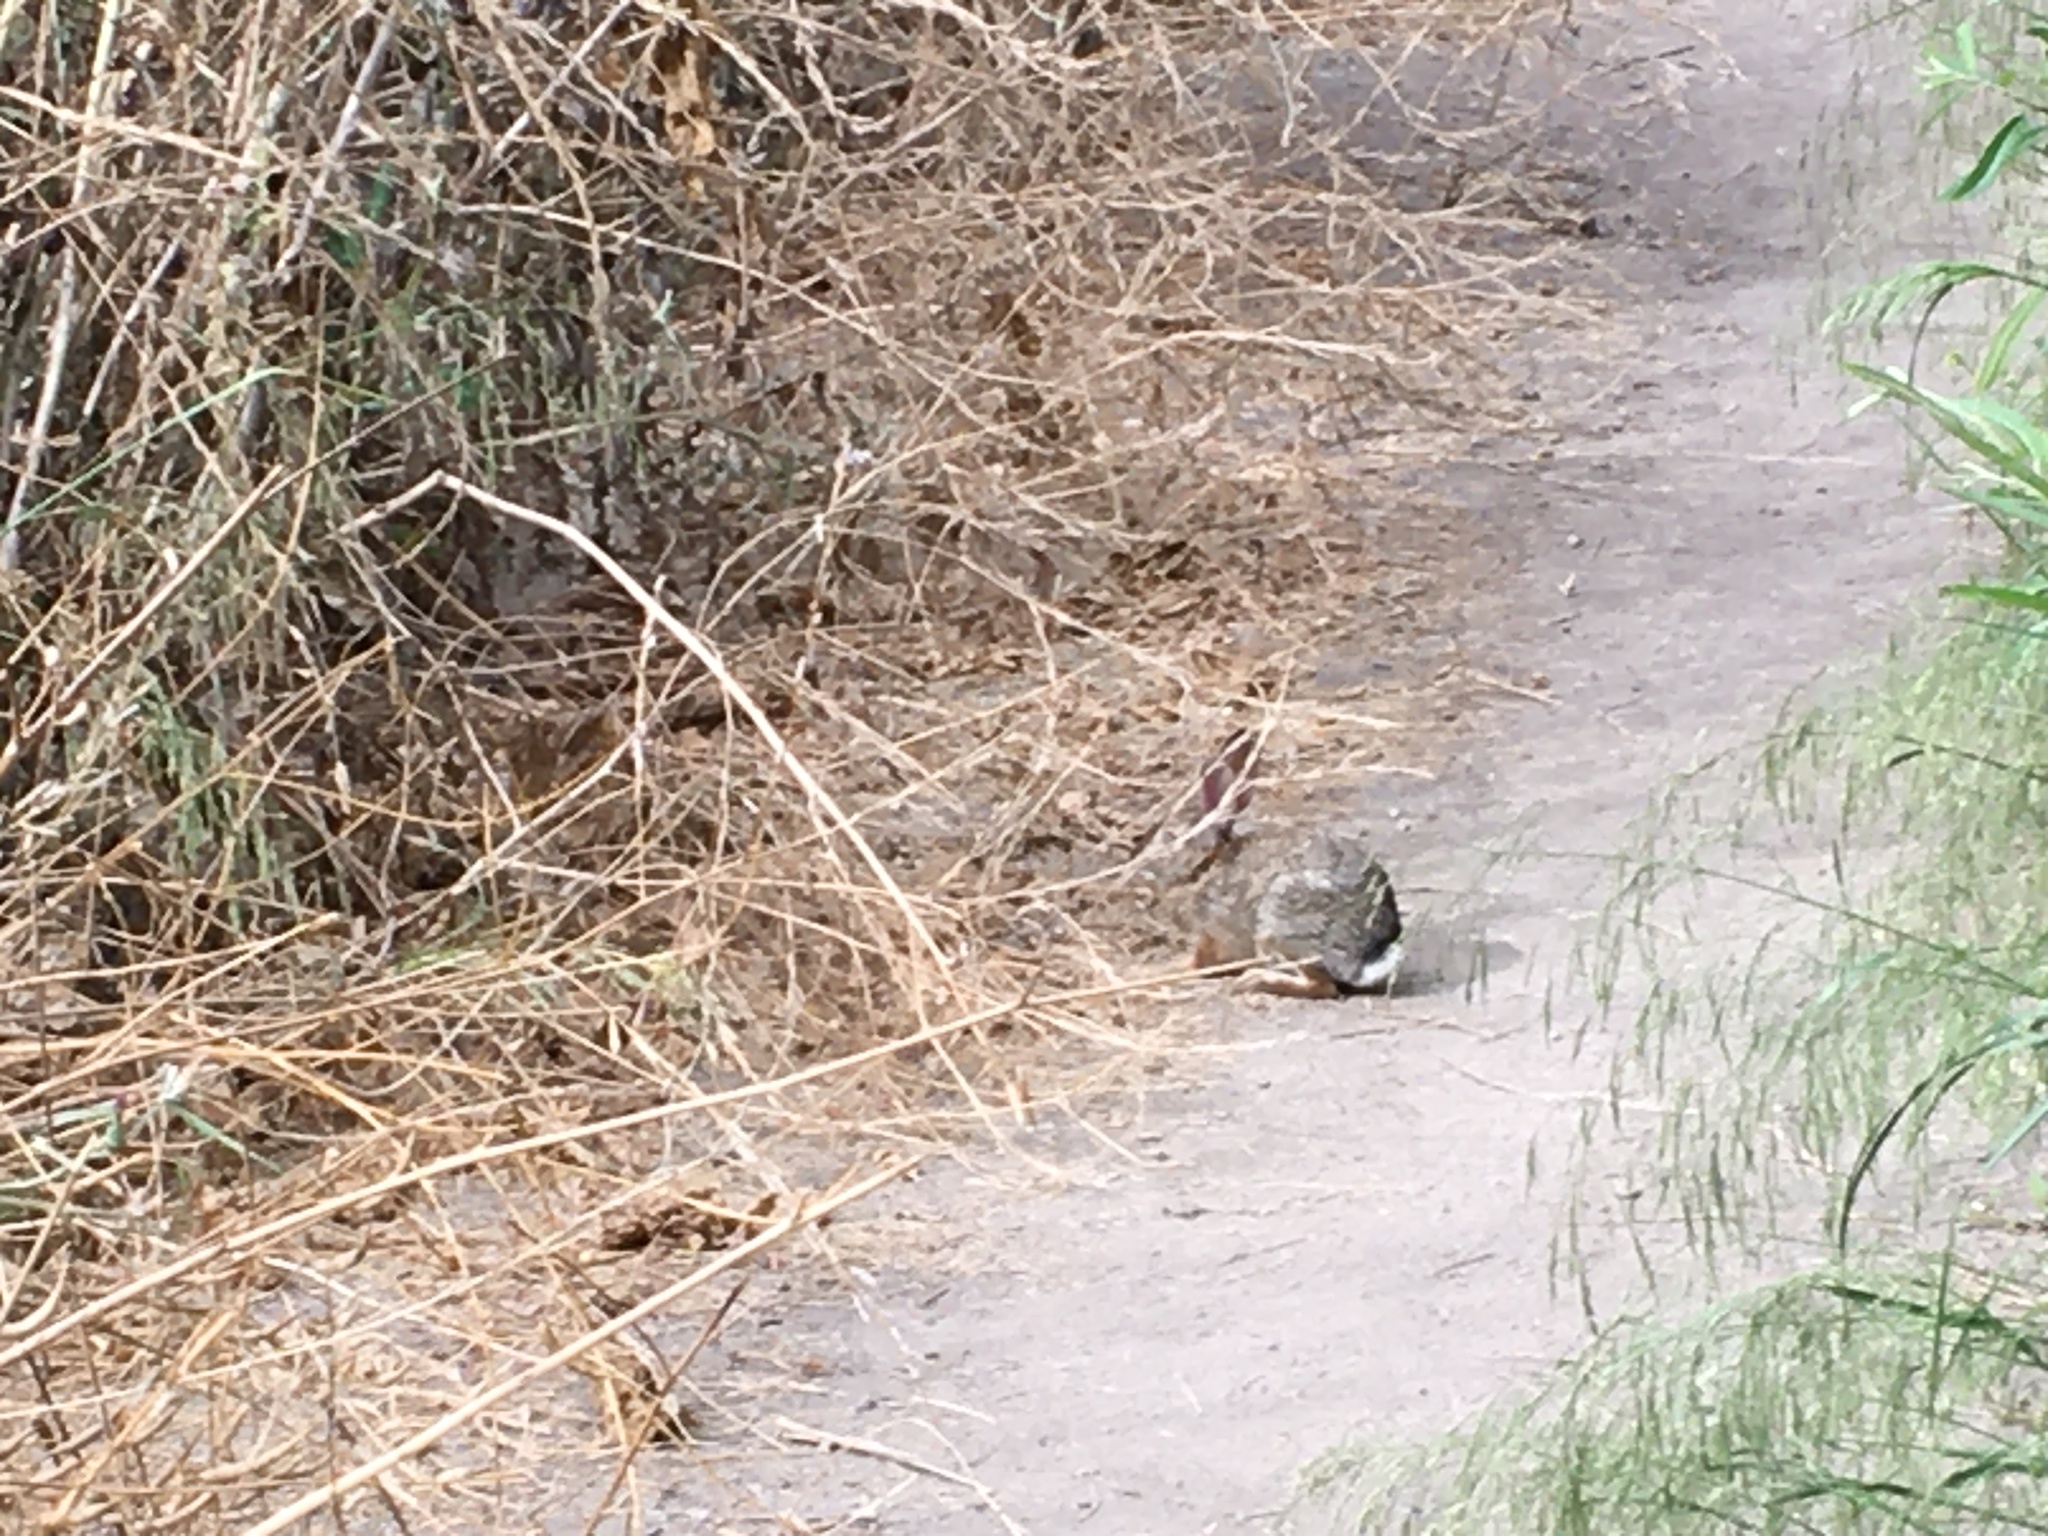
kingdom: Animalia
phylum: Chordata
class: Mammalia
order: Lagomorpha
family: Leporidae
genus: Sylvilagus
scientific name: Sylvilagus audubonii
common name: Desert cottontail
